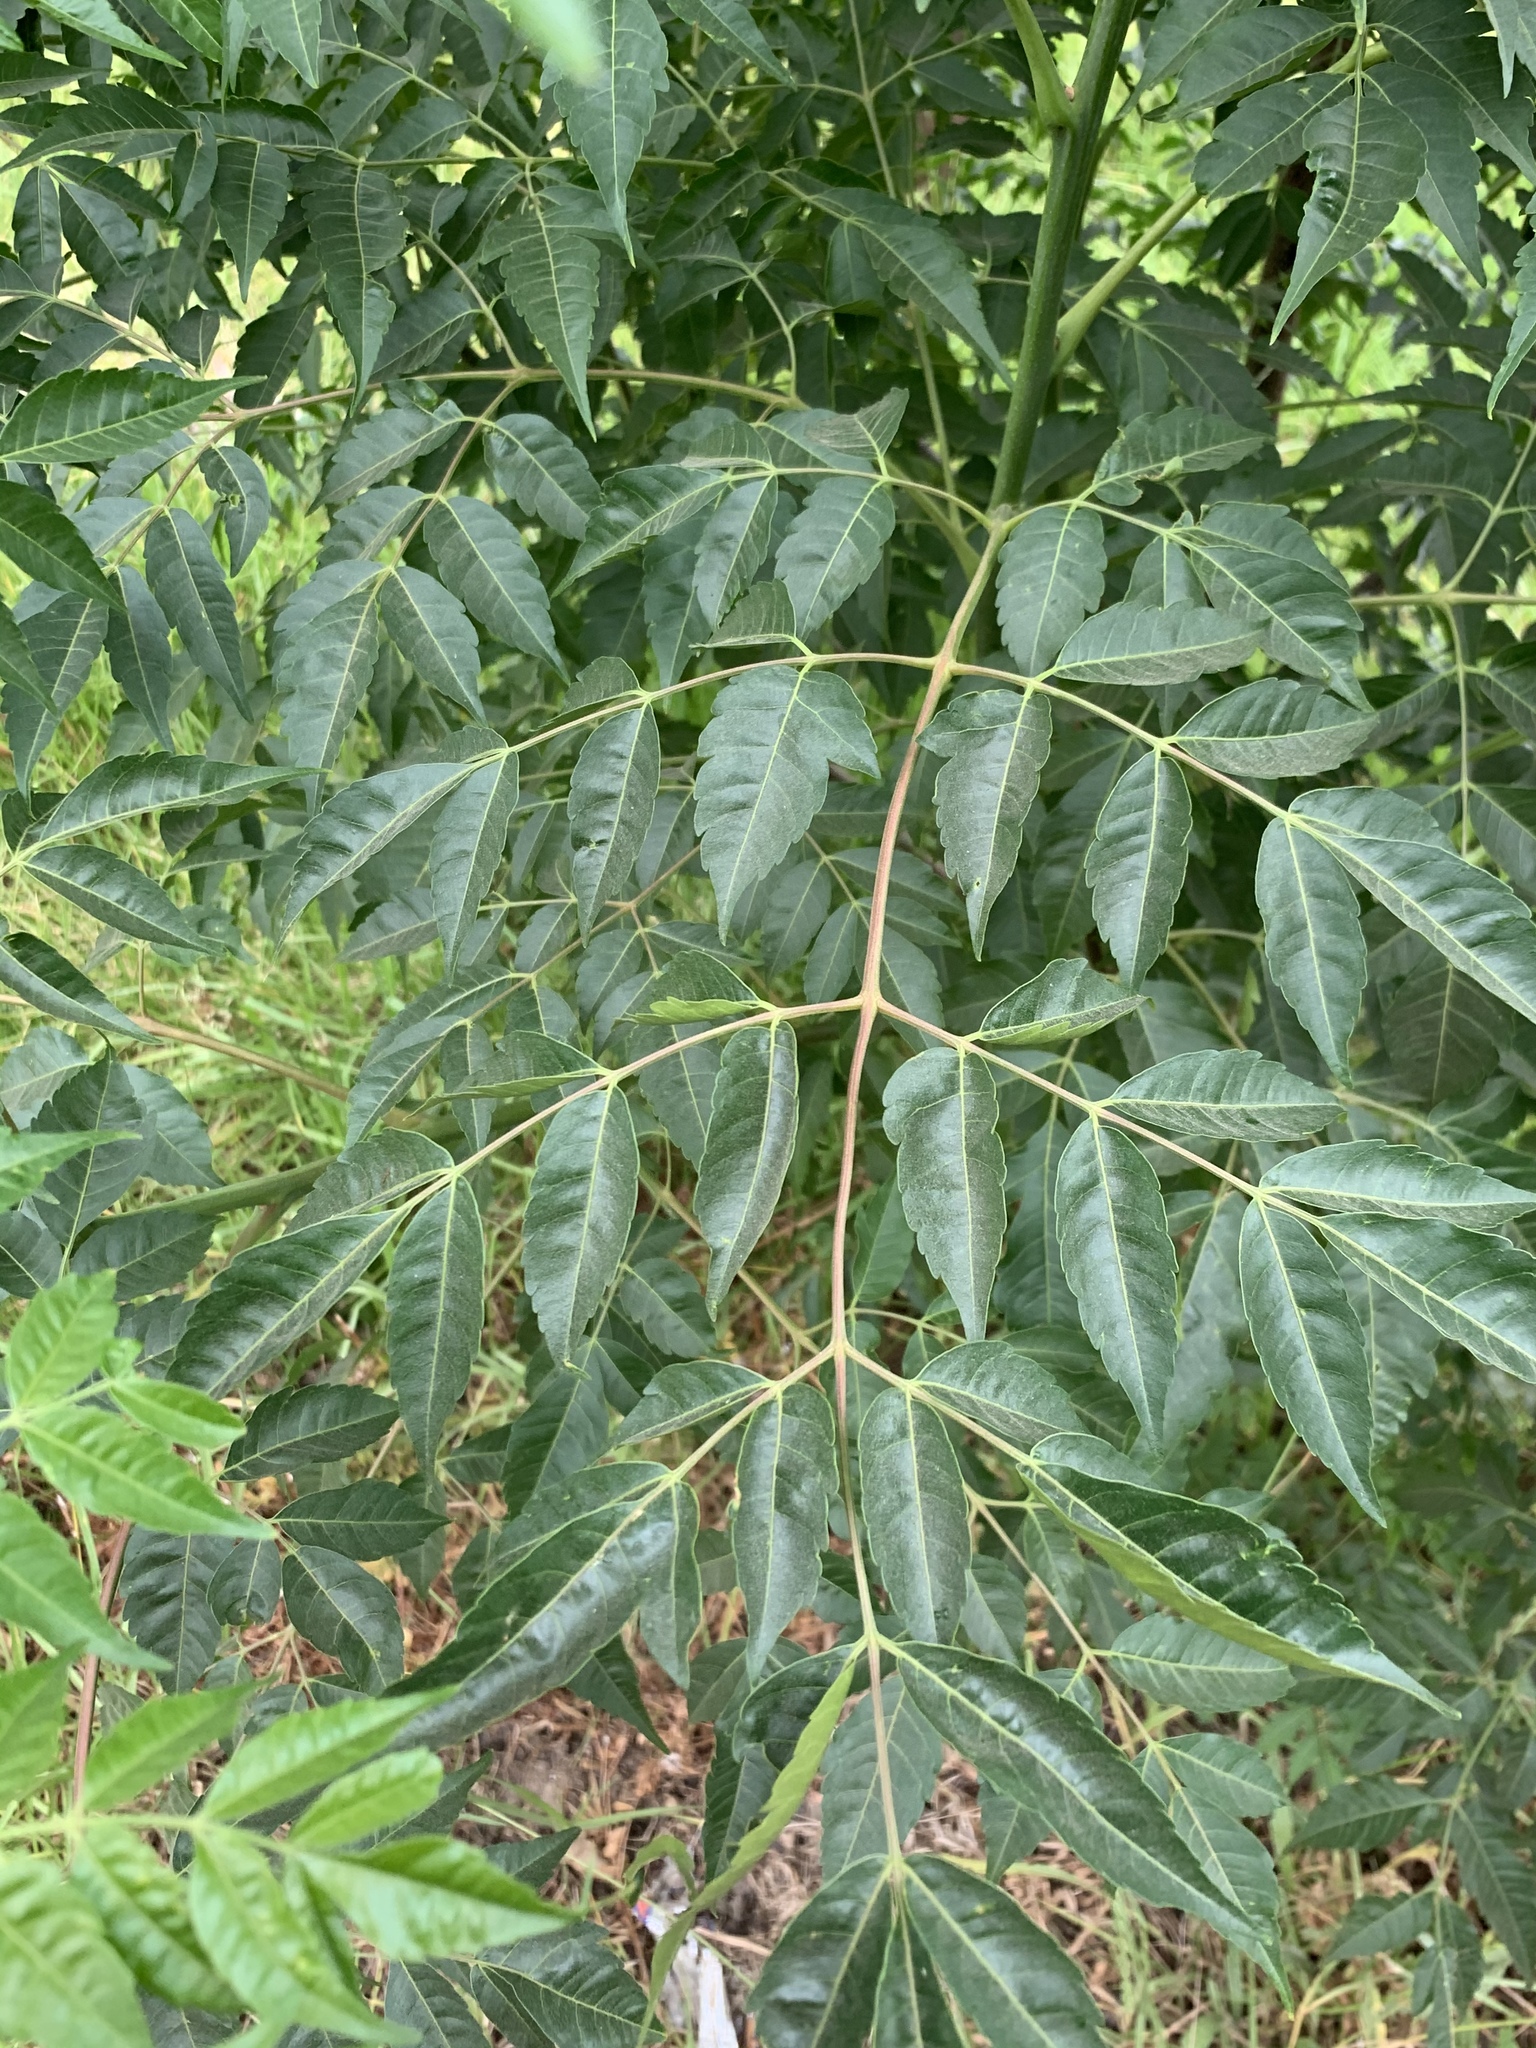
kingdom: Plantae
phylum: Tracheophyta
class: Magnoliopsida
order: Sapindales
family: Meliaceae
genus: Melia
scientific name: Melia azedarach
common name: Chinaberrytree
